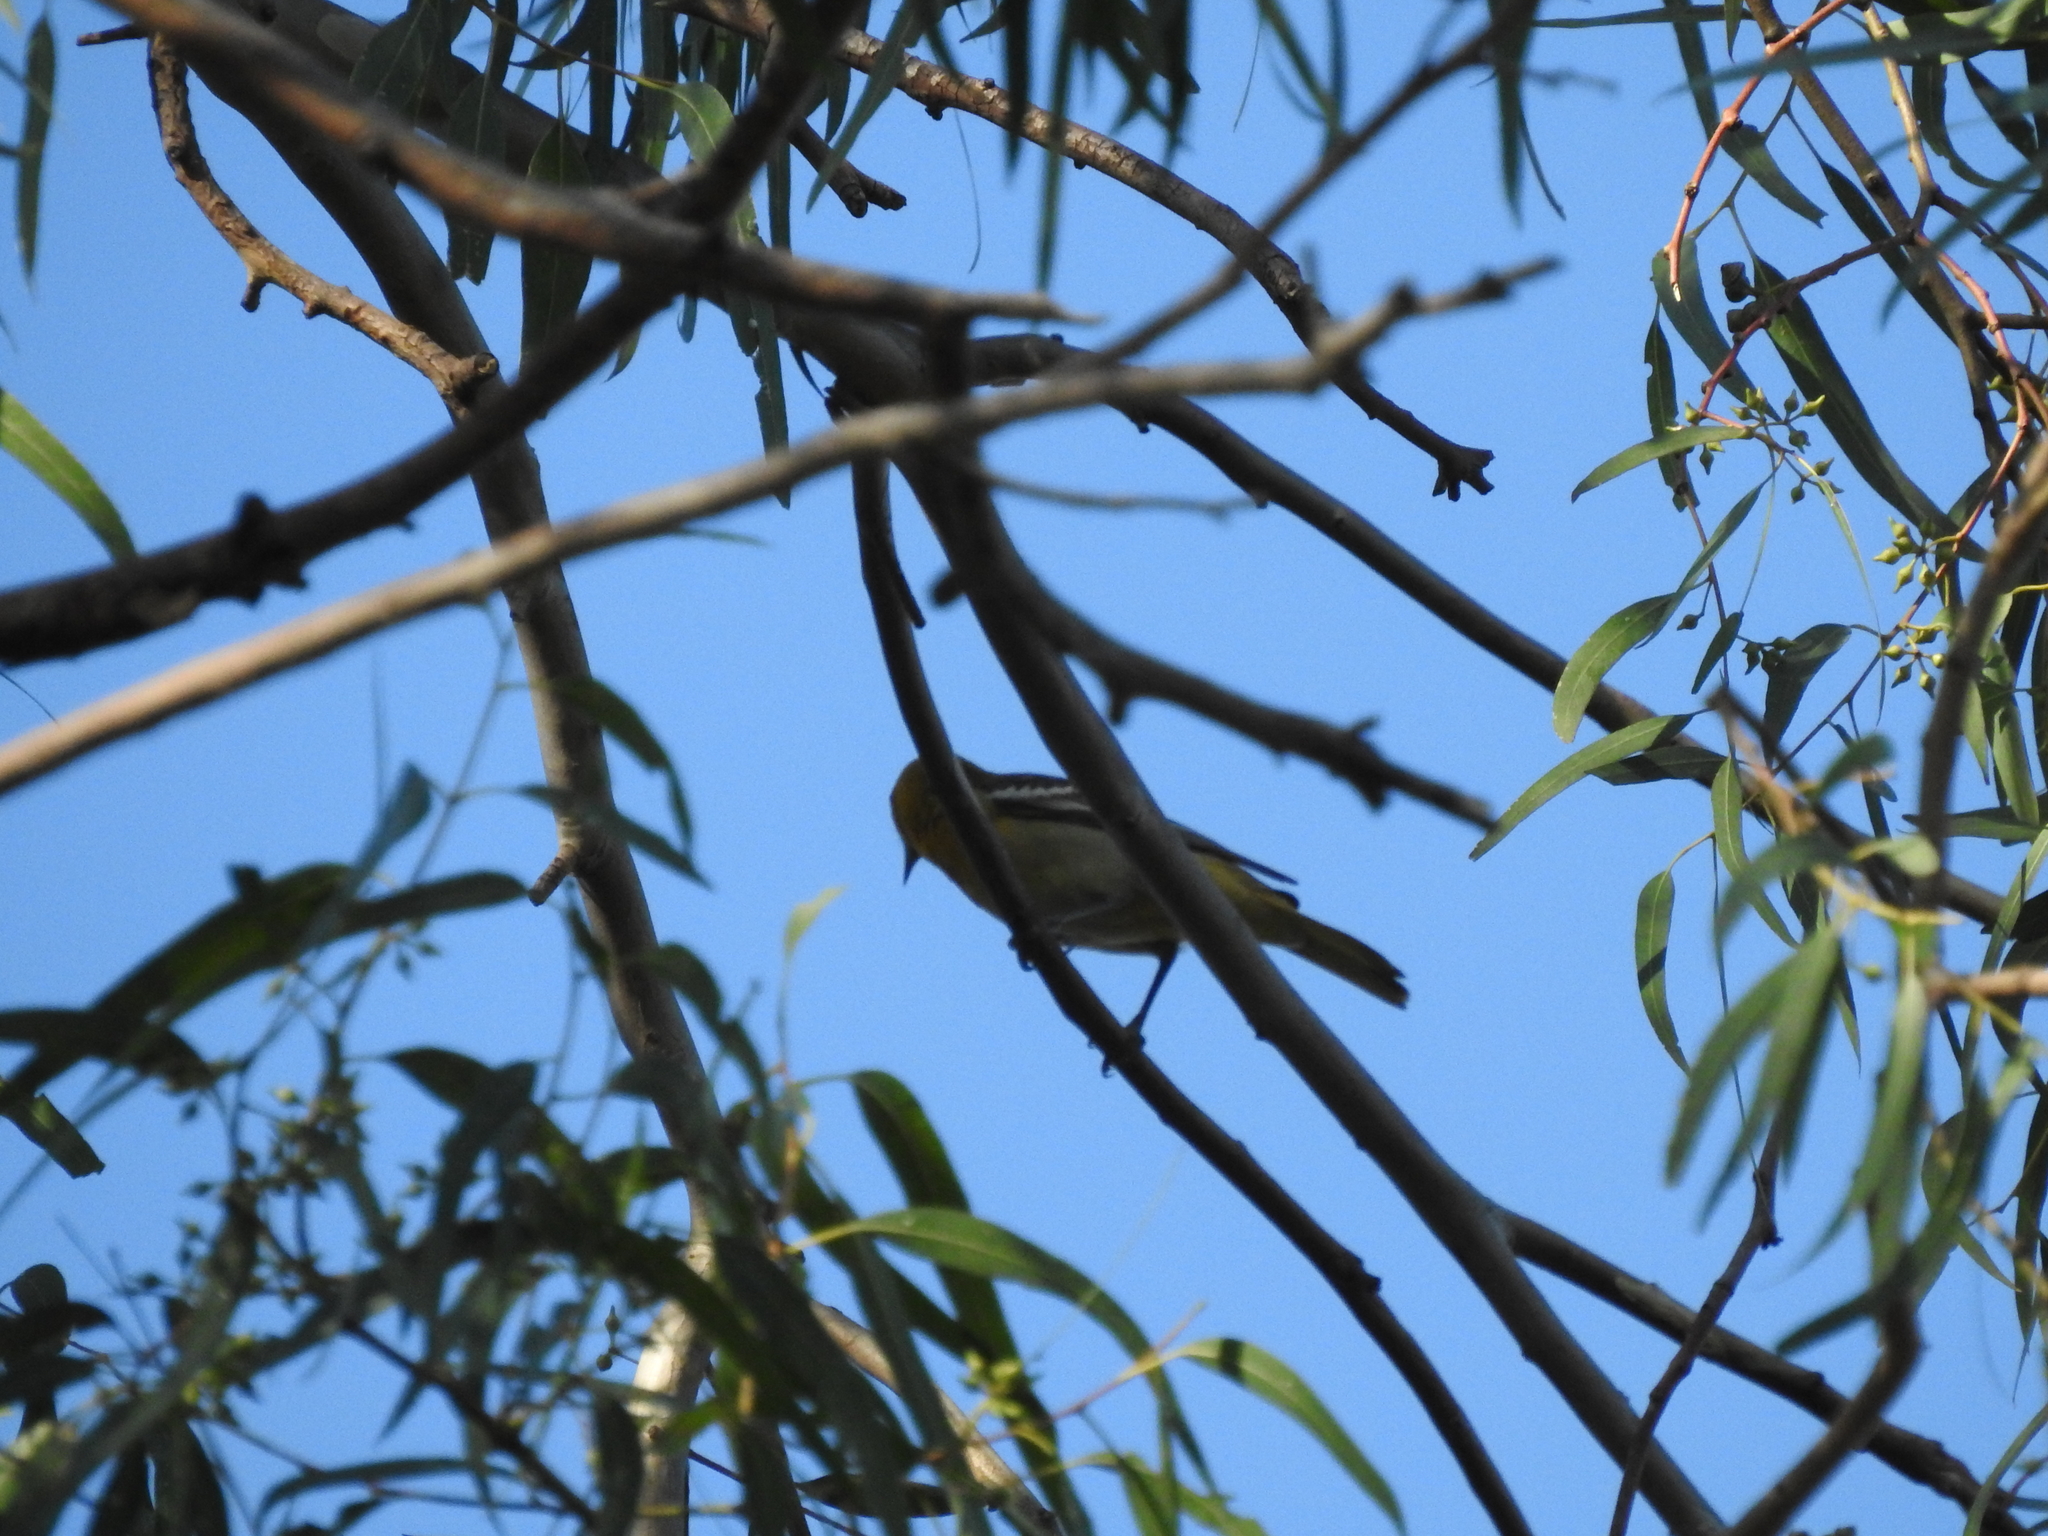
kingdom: Animalia
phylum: Chordata
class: Aves
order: Passeriformes
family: Icteridae
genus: Icterus
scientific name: Icterus bullockii
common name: Bullock's oriole
